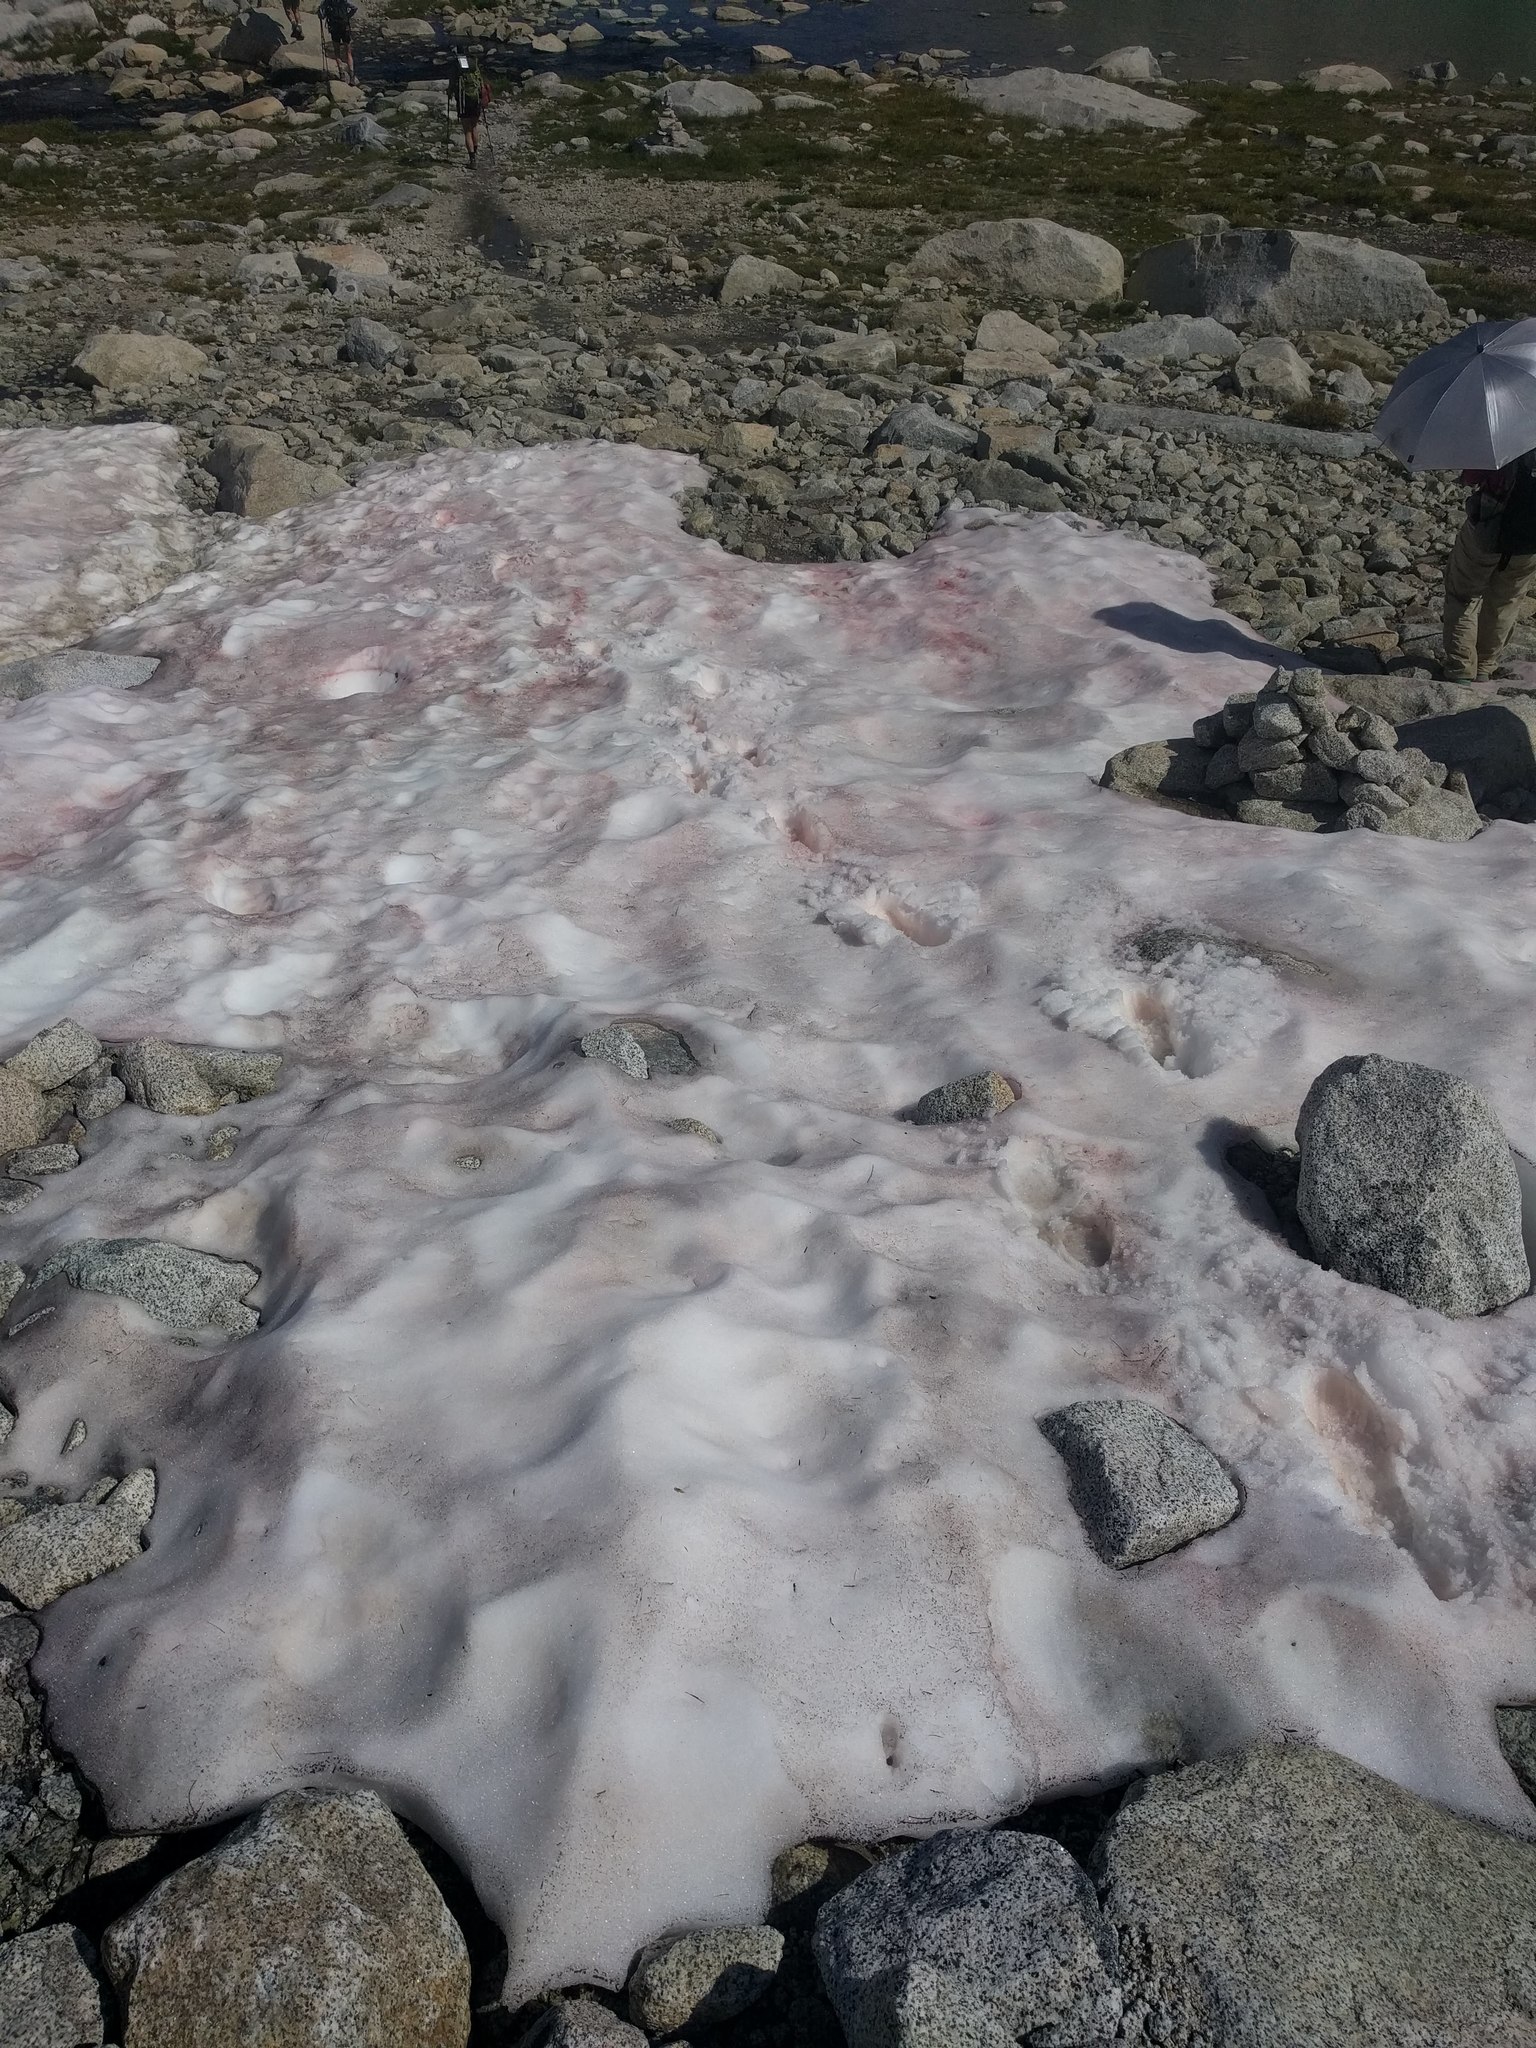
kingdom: Plantae
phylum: Chlorophyta
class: Chlorophyceae
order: Volvocales
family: Chlamydomonadaceae
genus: Chlamydomonas
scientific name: Chlamydomonas nivalis
